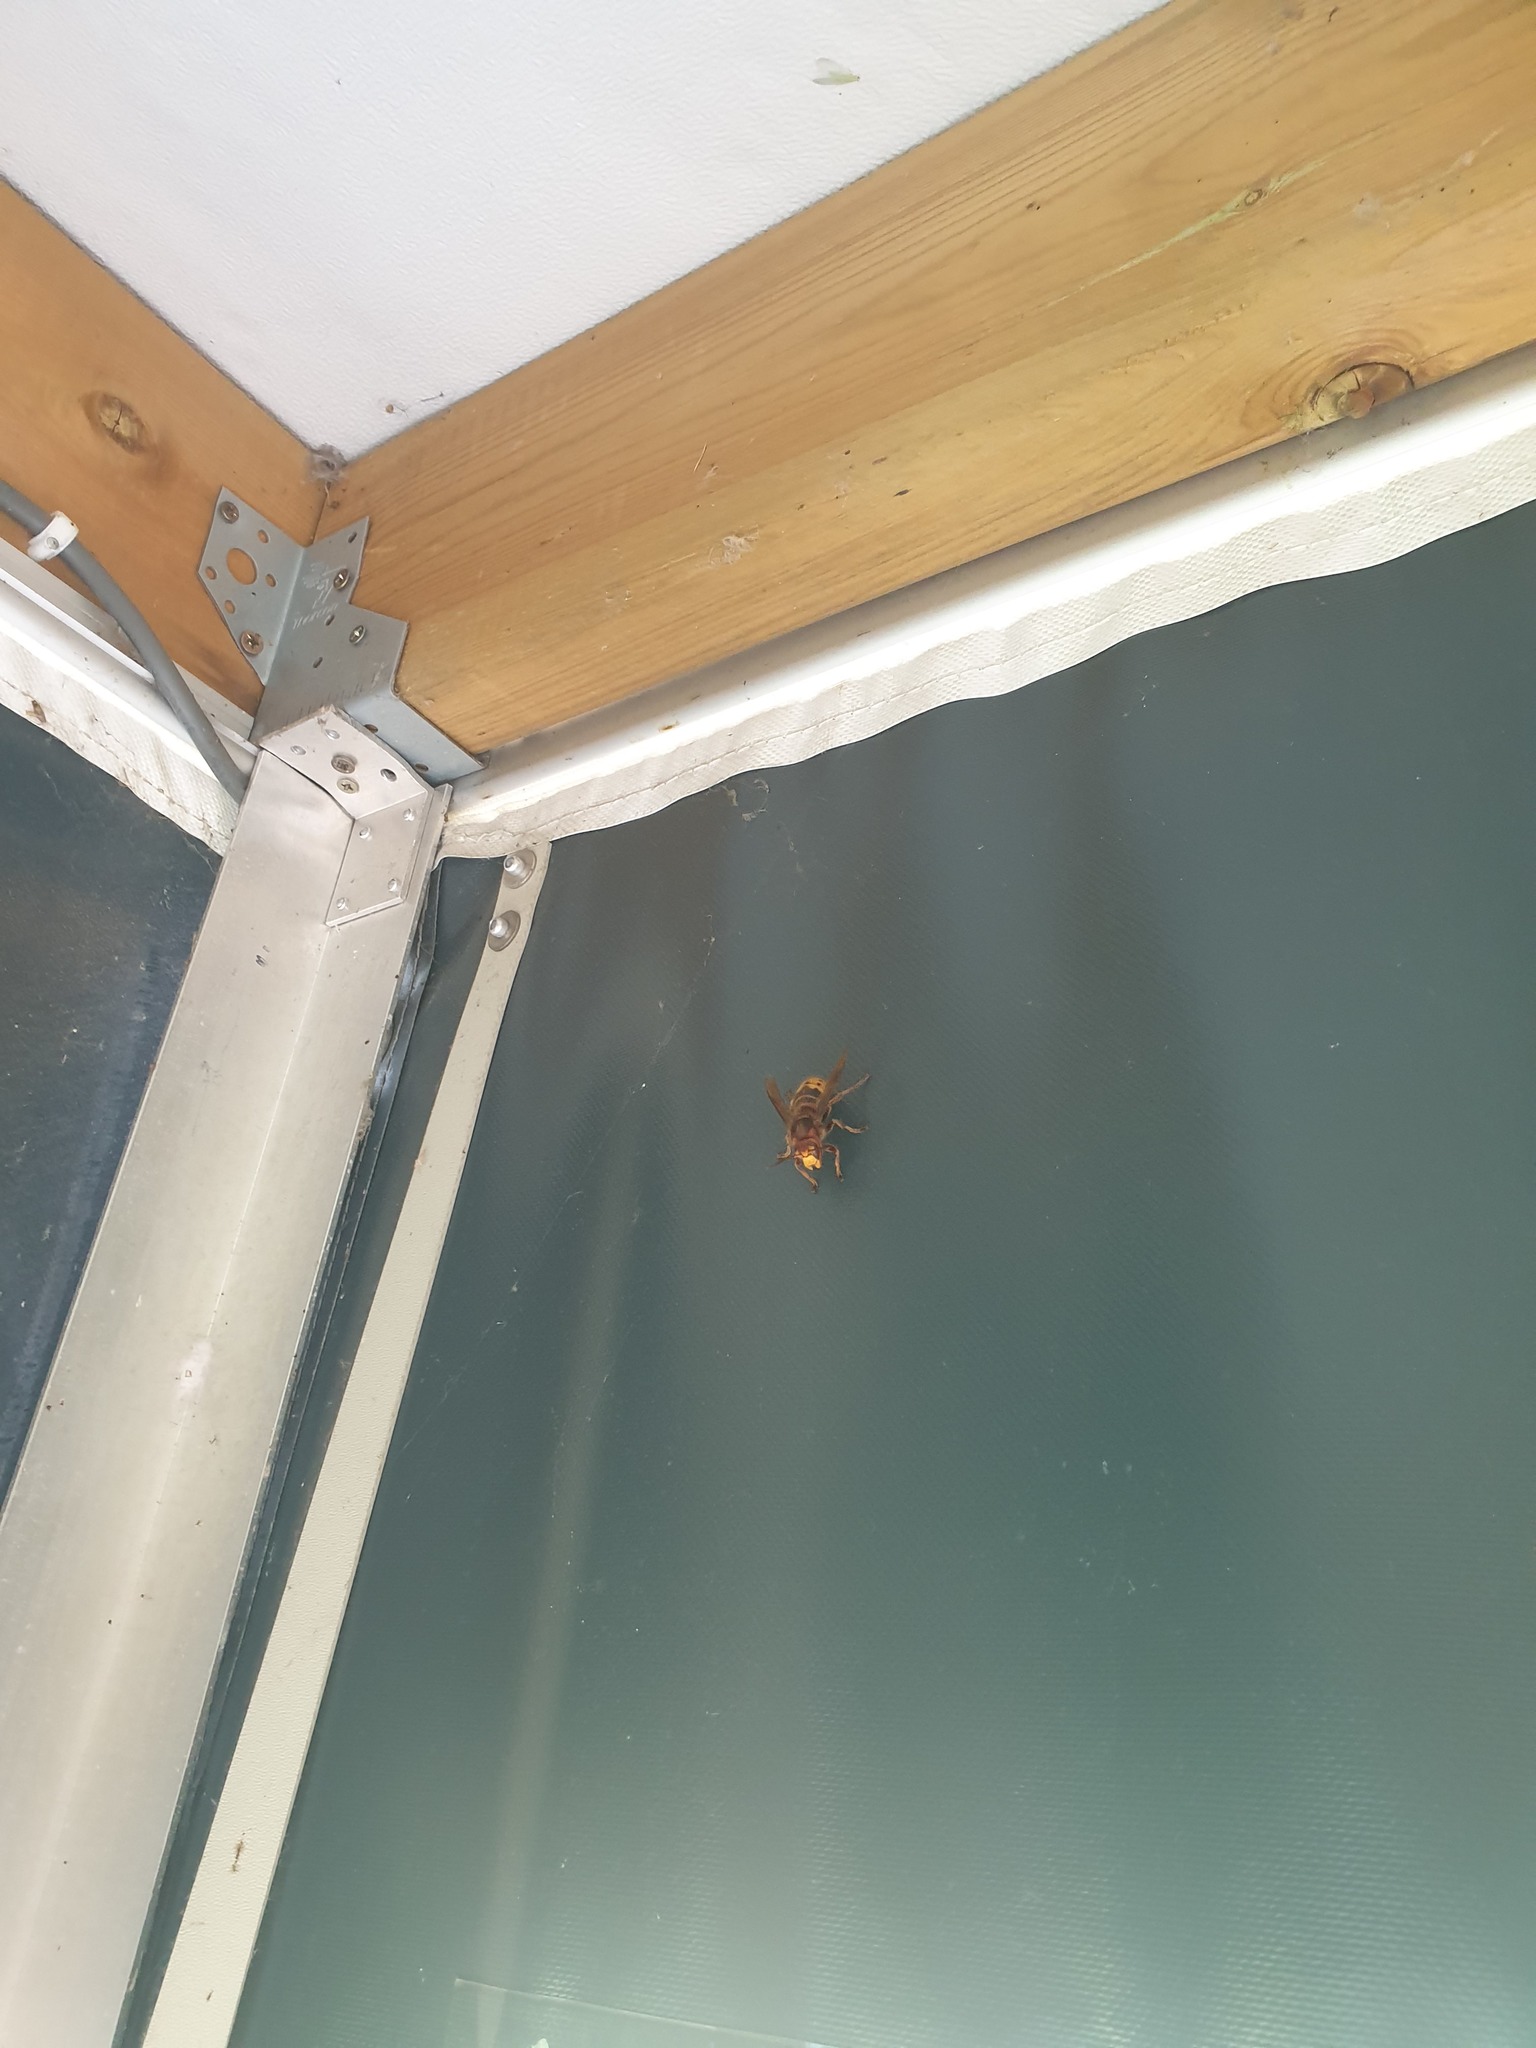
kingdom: Animalia
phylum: Arthropoda
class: Insecta
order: Hymenoptera
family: Vespidae
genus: Vespa
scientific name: Vespa crabro
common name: Hornet
